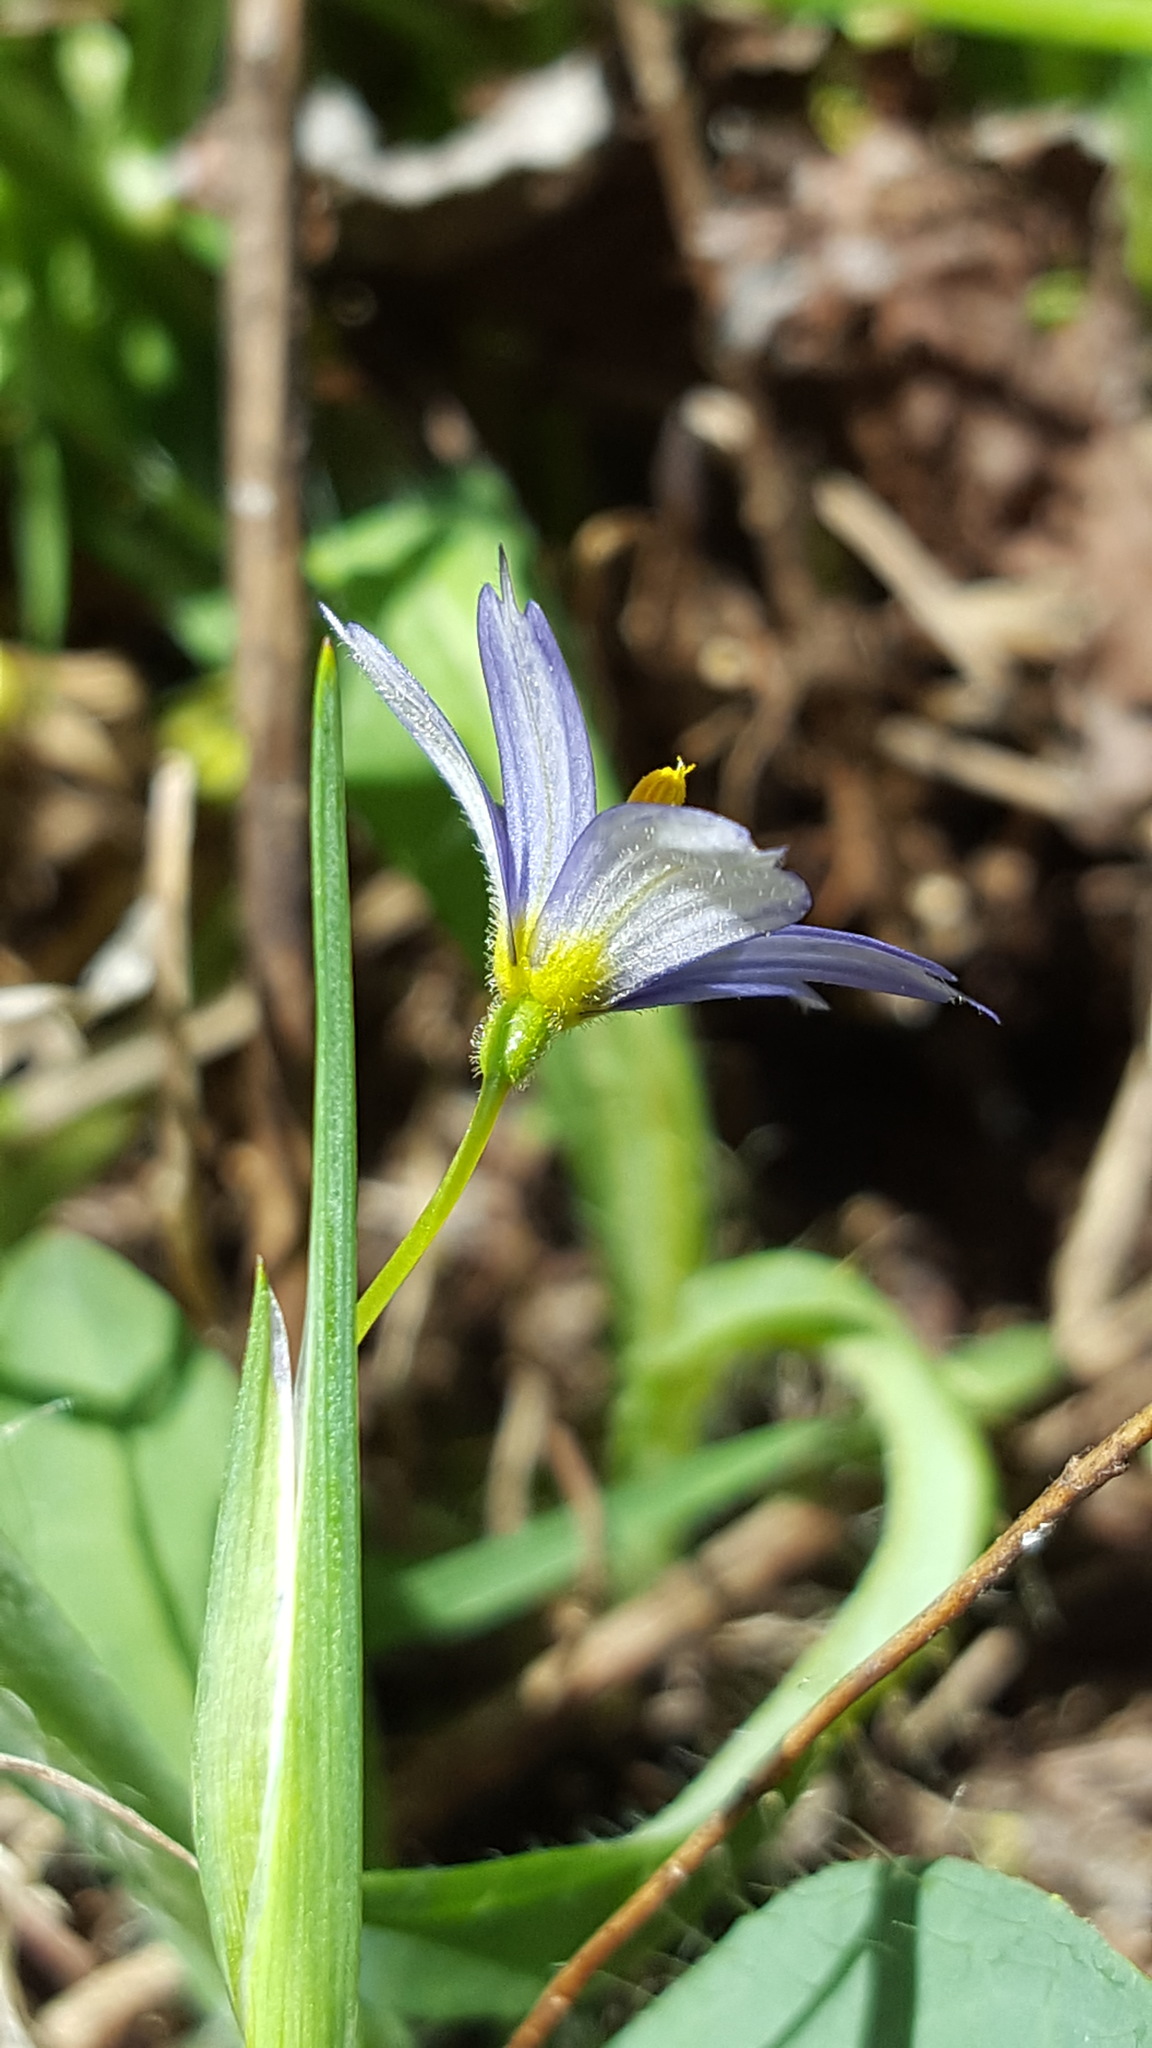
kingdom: Plantae
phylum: Tracheophyta
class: Liliopsida
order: Asparagales
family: Iridaceae
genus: Sisyrinchium
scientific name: Sisyrinchium montanum
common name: American blue-eyed-grass
